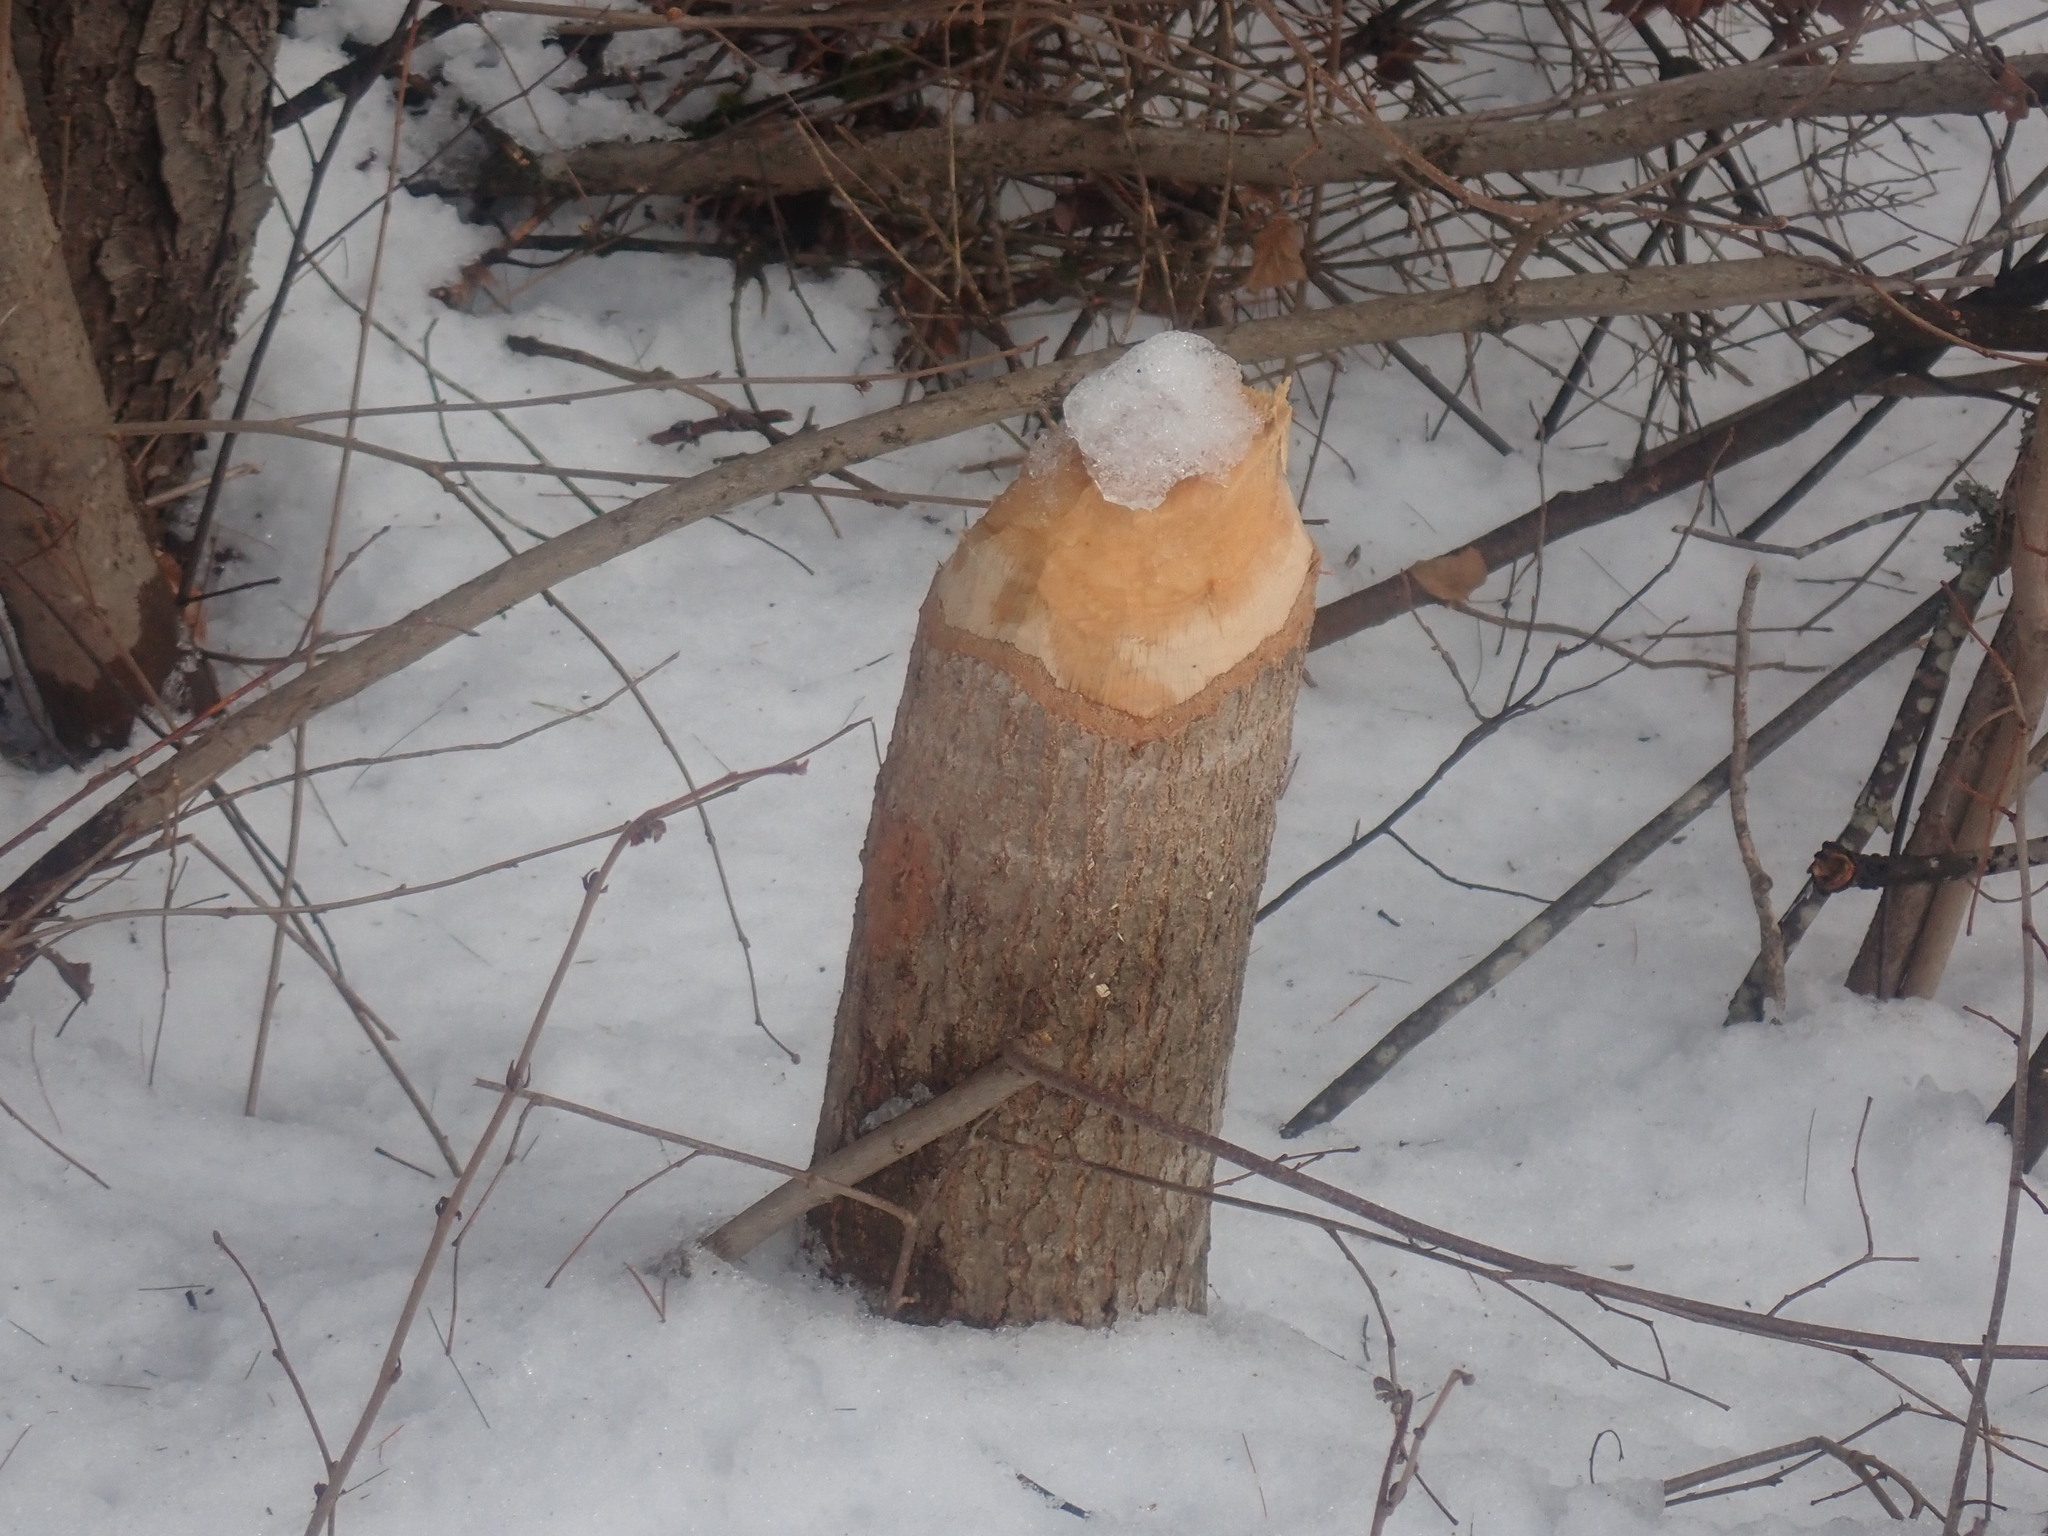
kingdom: Animalia
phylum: Chordata
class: Mammalia
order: Rodentia
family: Castoridae
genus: Castor
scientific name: Castor canadensis
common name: American beaver
